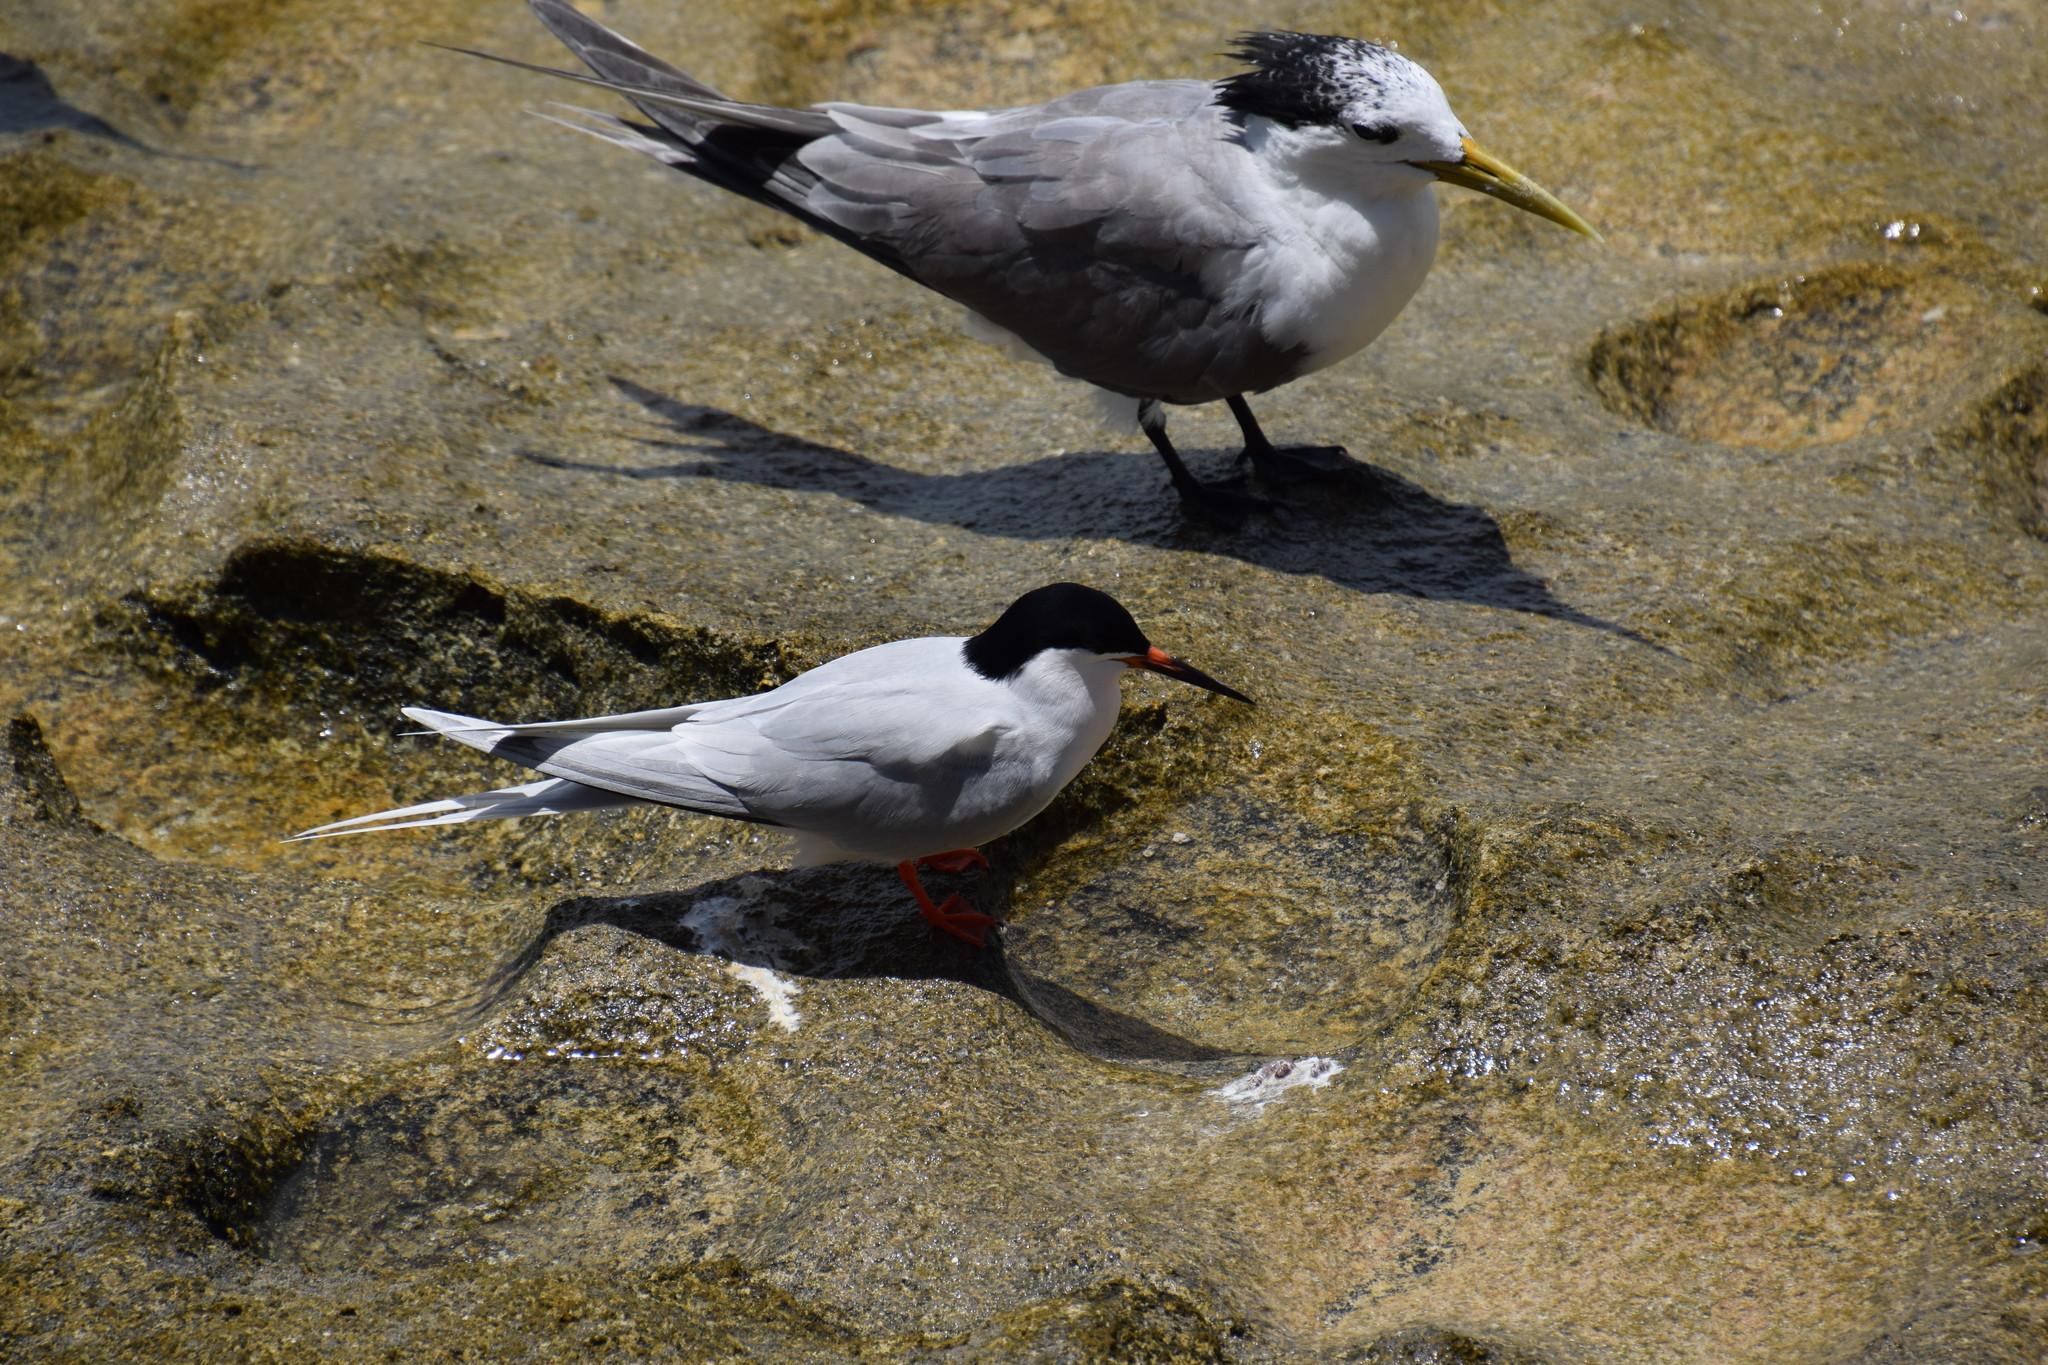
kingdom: Animalia
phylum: Chordata
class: Aves
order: Charadriiformes
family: Laridae
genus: Sterna
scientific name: Sterna dougallii
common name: Roseate tern
